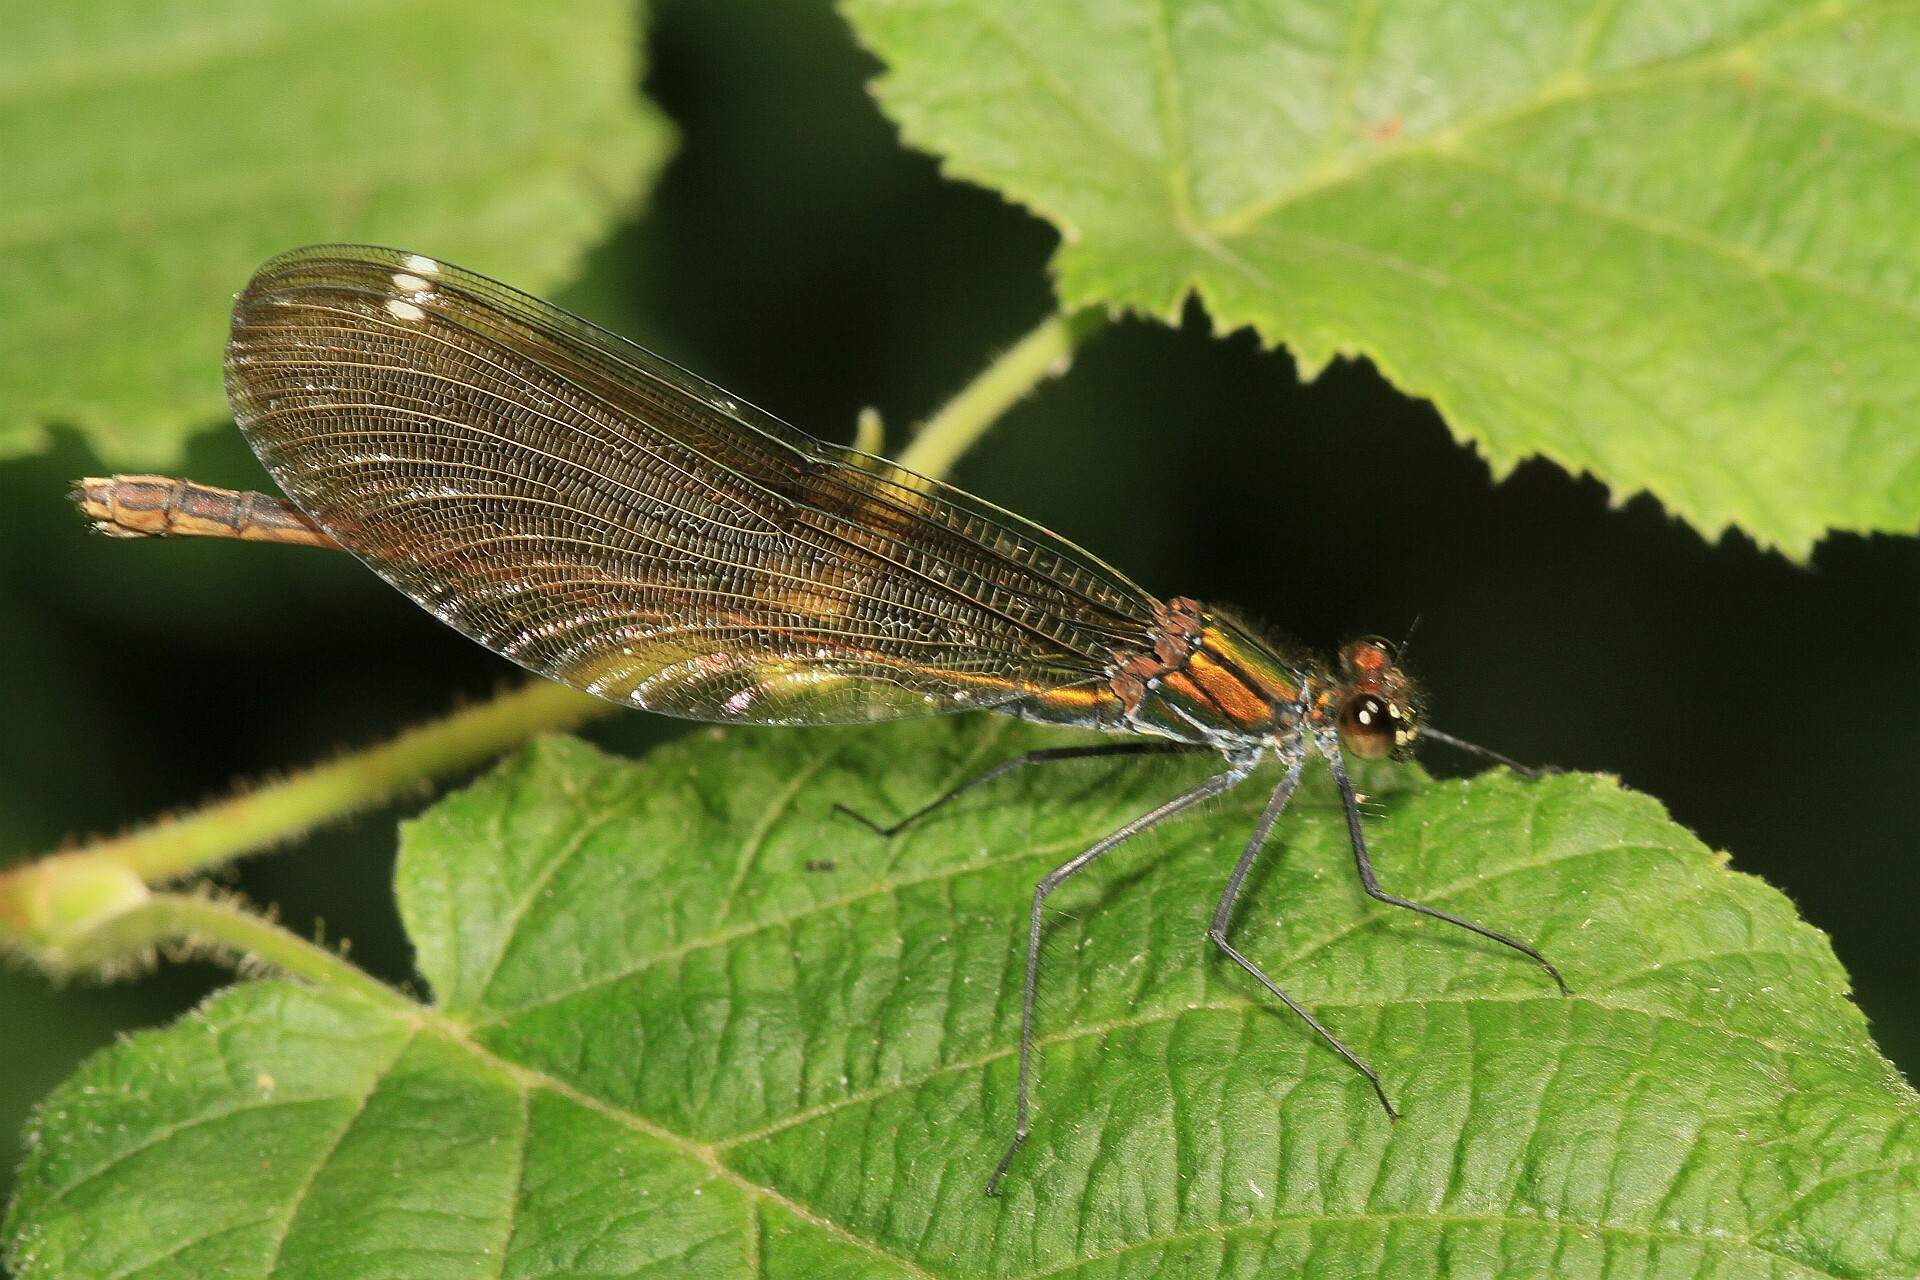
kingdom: Animalia
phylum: Arthropoda
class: Insecta
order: Odonata
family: Calopterygidae
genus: Calopteryx
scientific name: Calopteryx virgo
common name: Beautiful demoiselle
